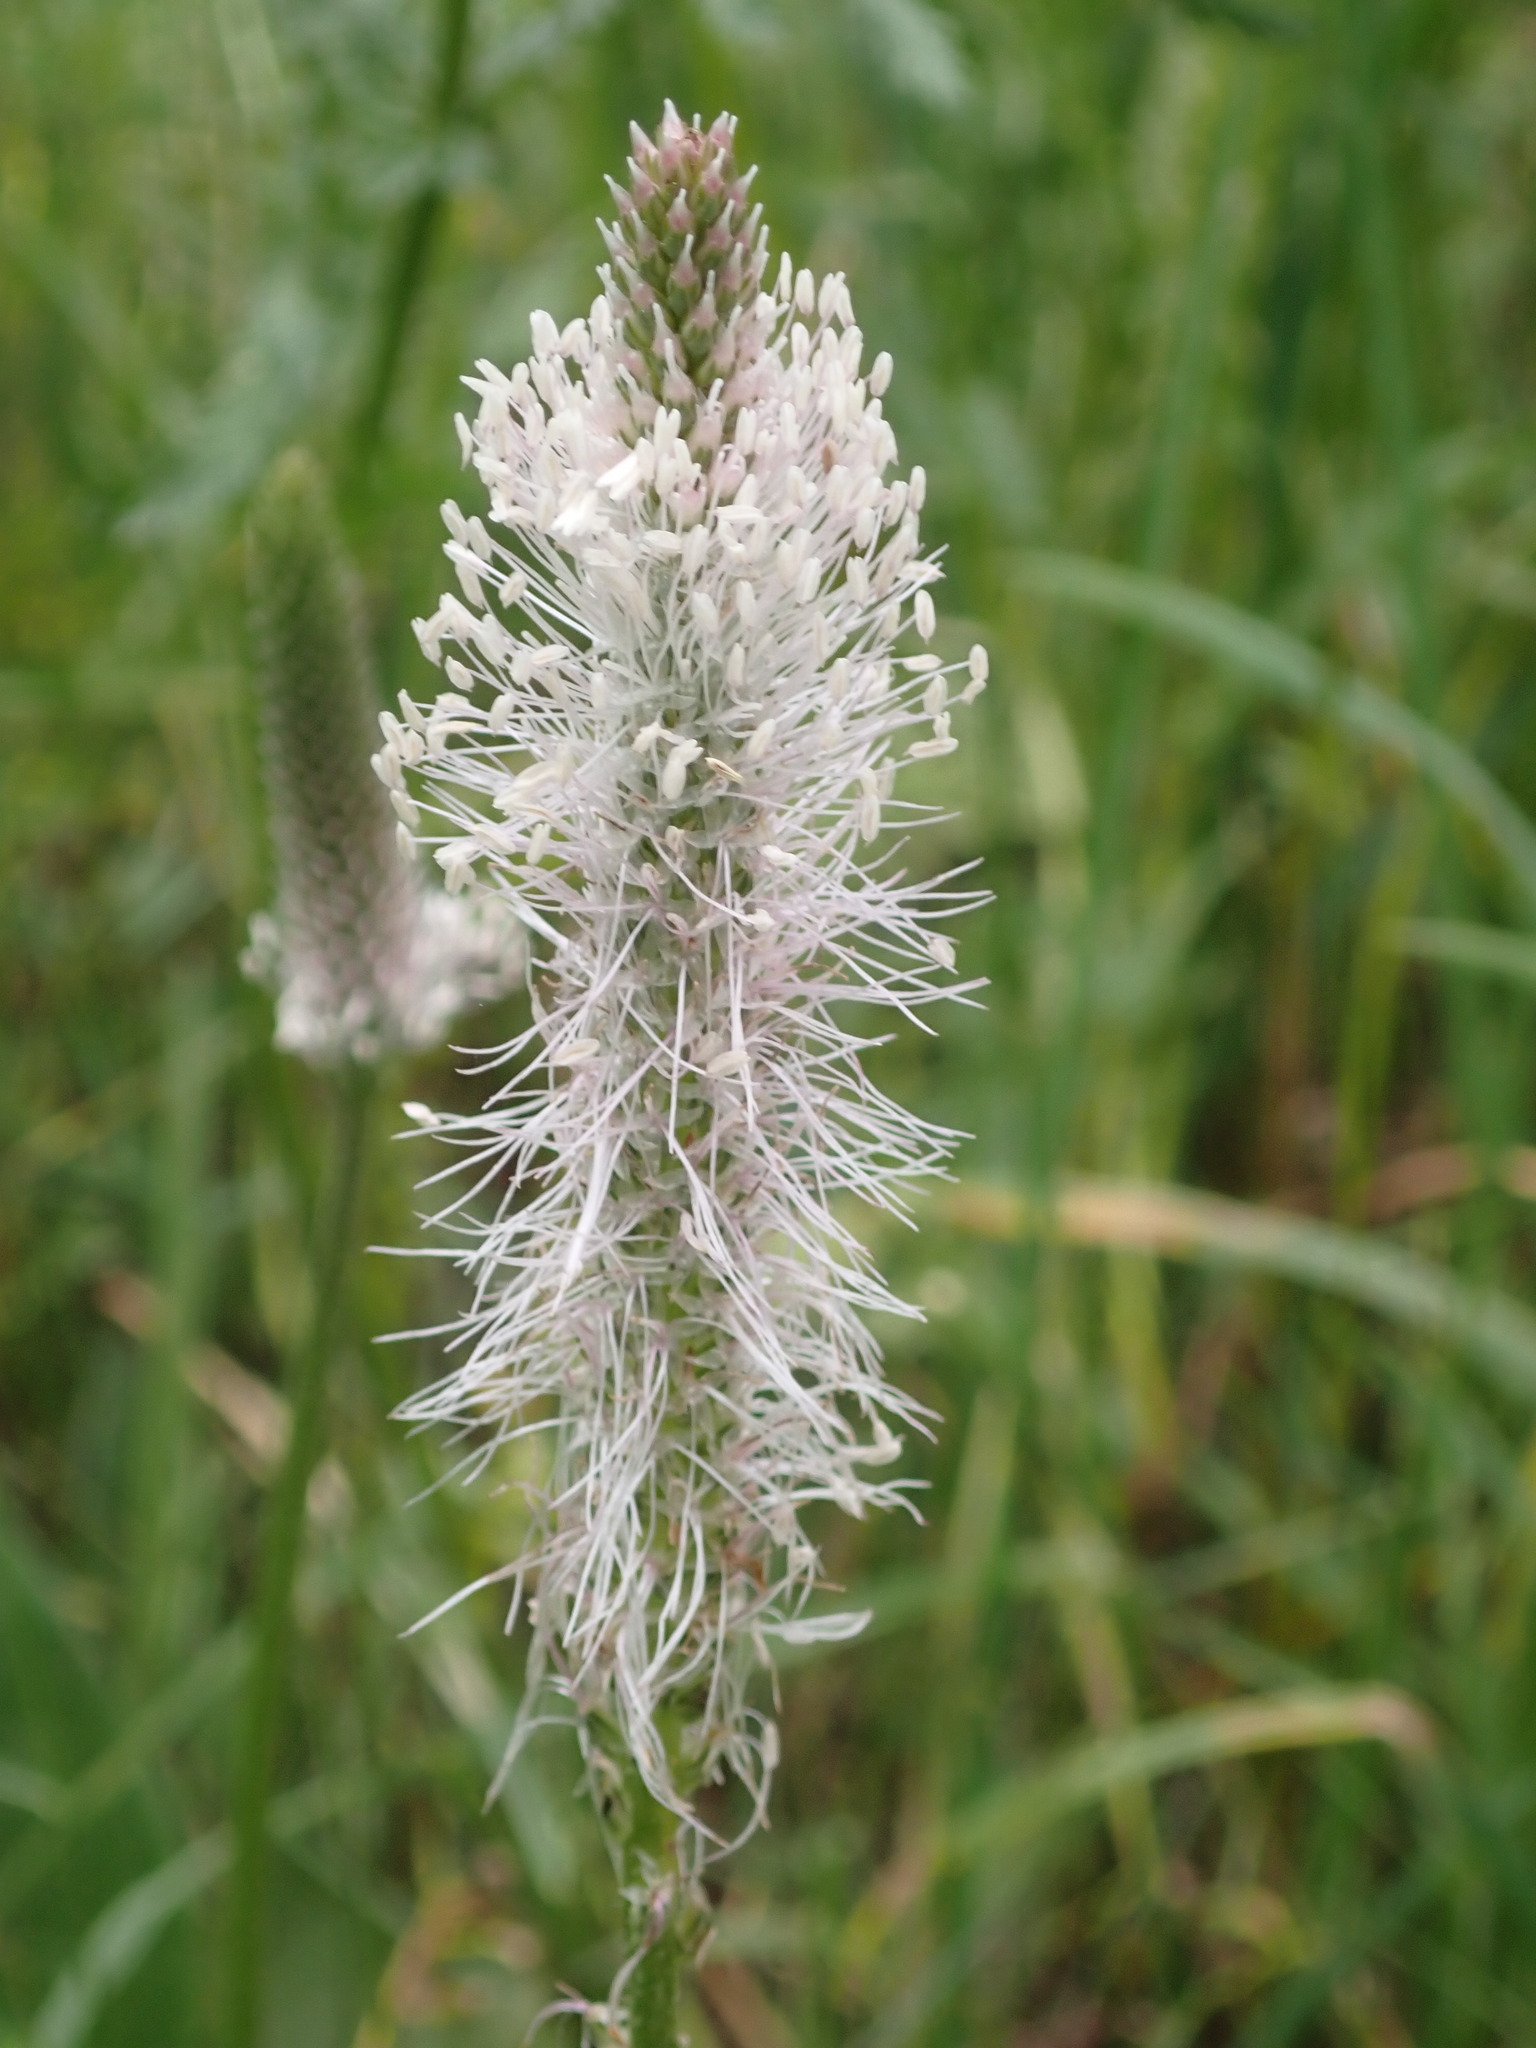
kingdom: Plantae
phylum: Tracheophyta
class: Magnoliopsida
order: Lamiales
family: Plantaginaceae
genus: Plantago
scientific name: Plantago media
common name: Hoary plantain
